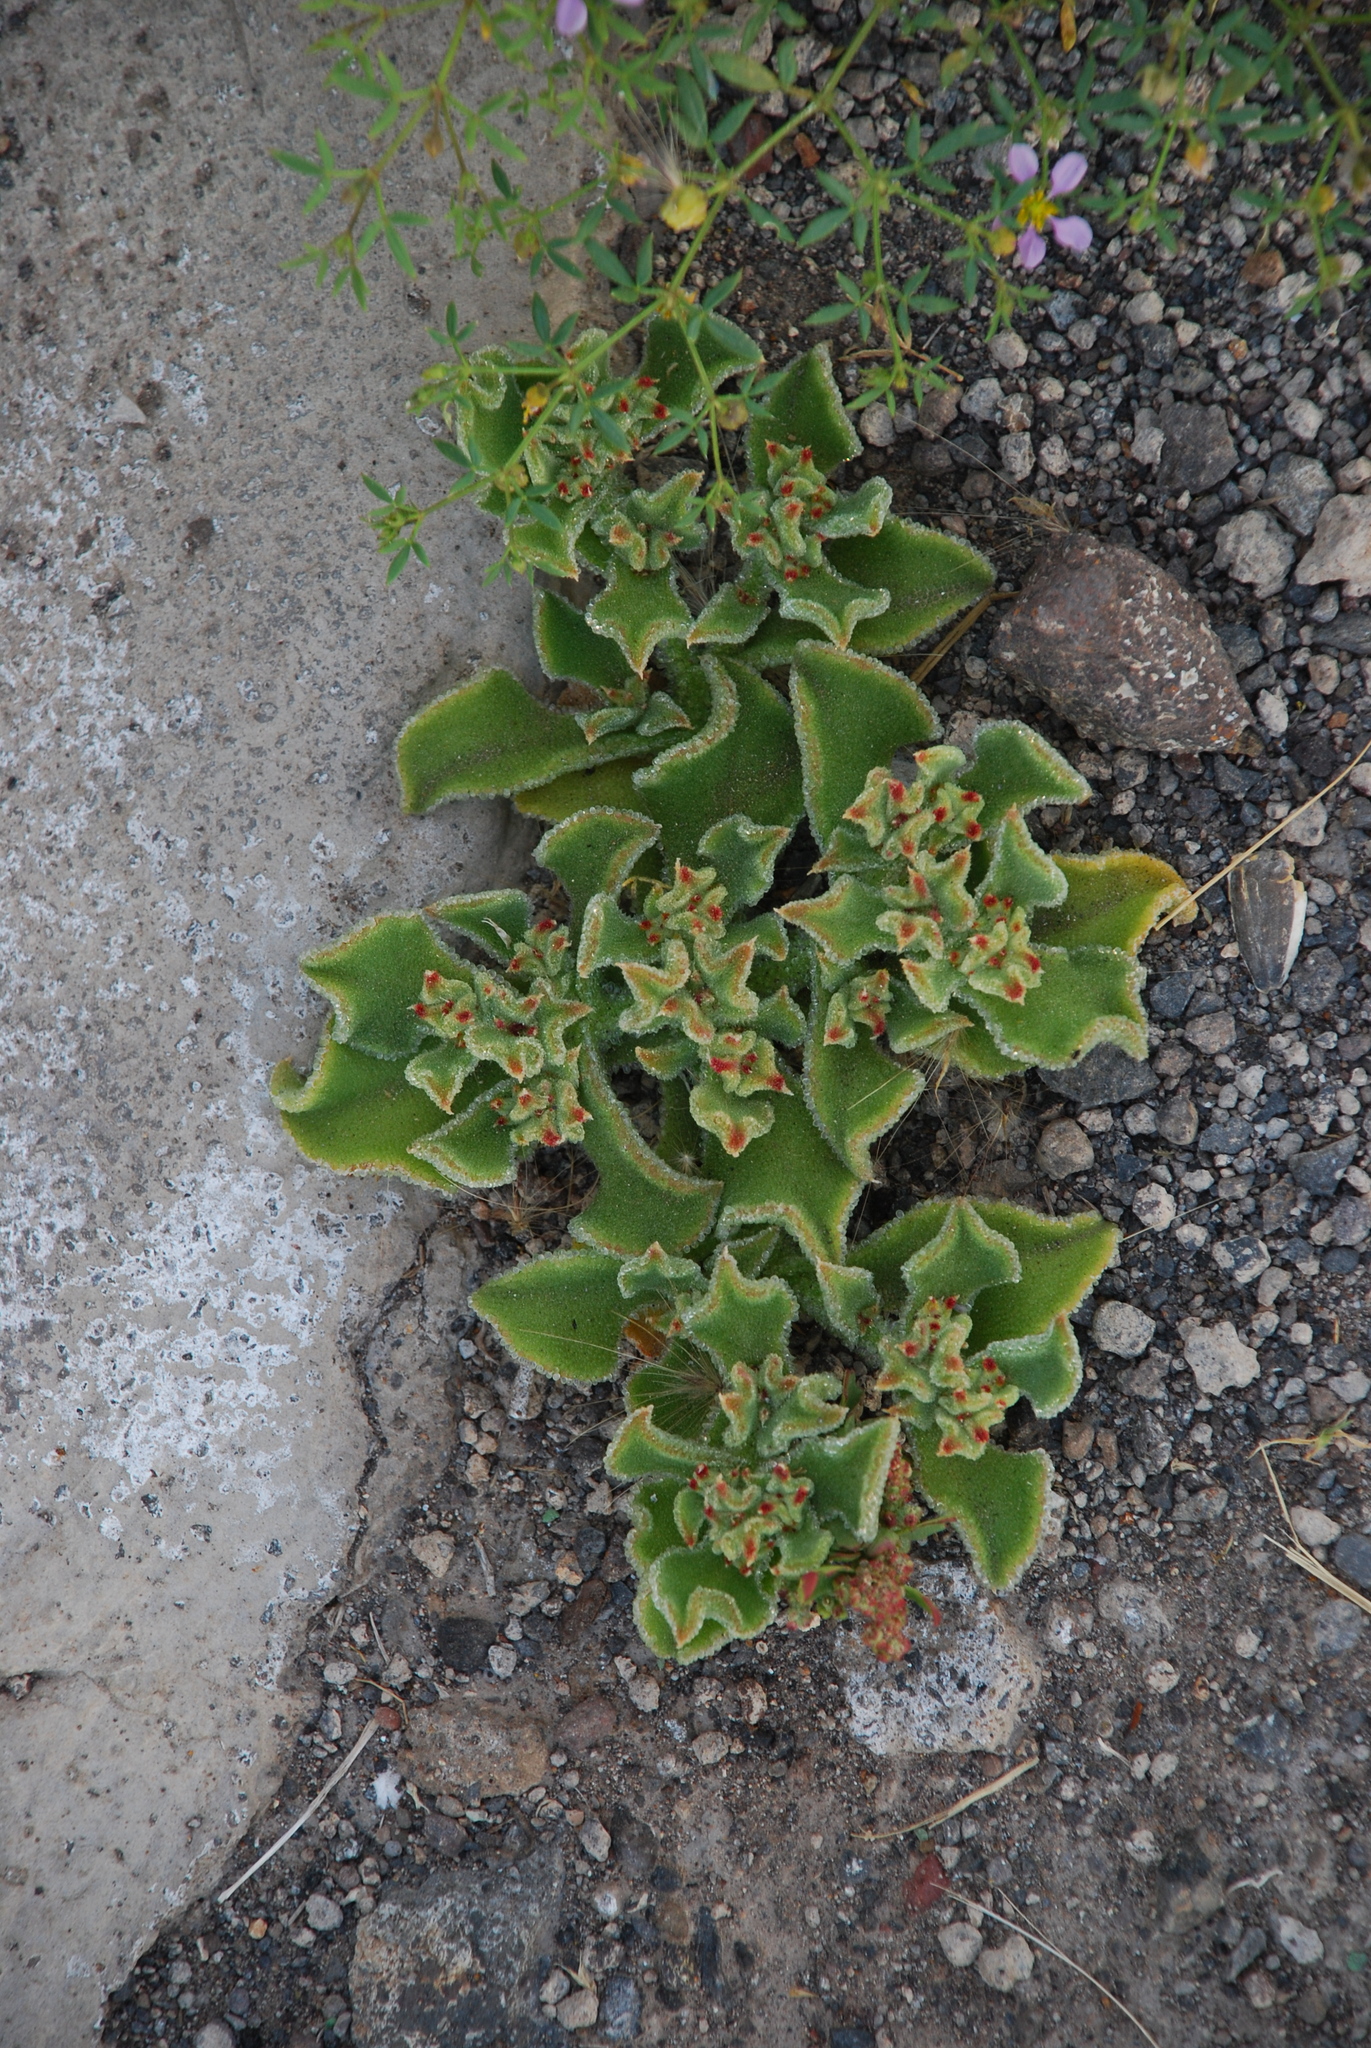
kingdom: Plantae
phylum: Tracheophyta
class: Magnoliopsida
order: Caryophyllales
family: Aizoaceae
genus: Mesembryanthemum
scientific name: Mesembryanthemum crystallinum
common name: Common iceplant
